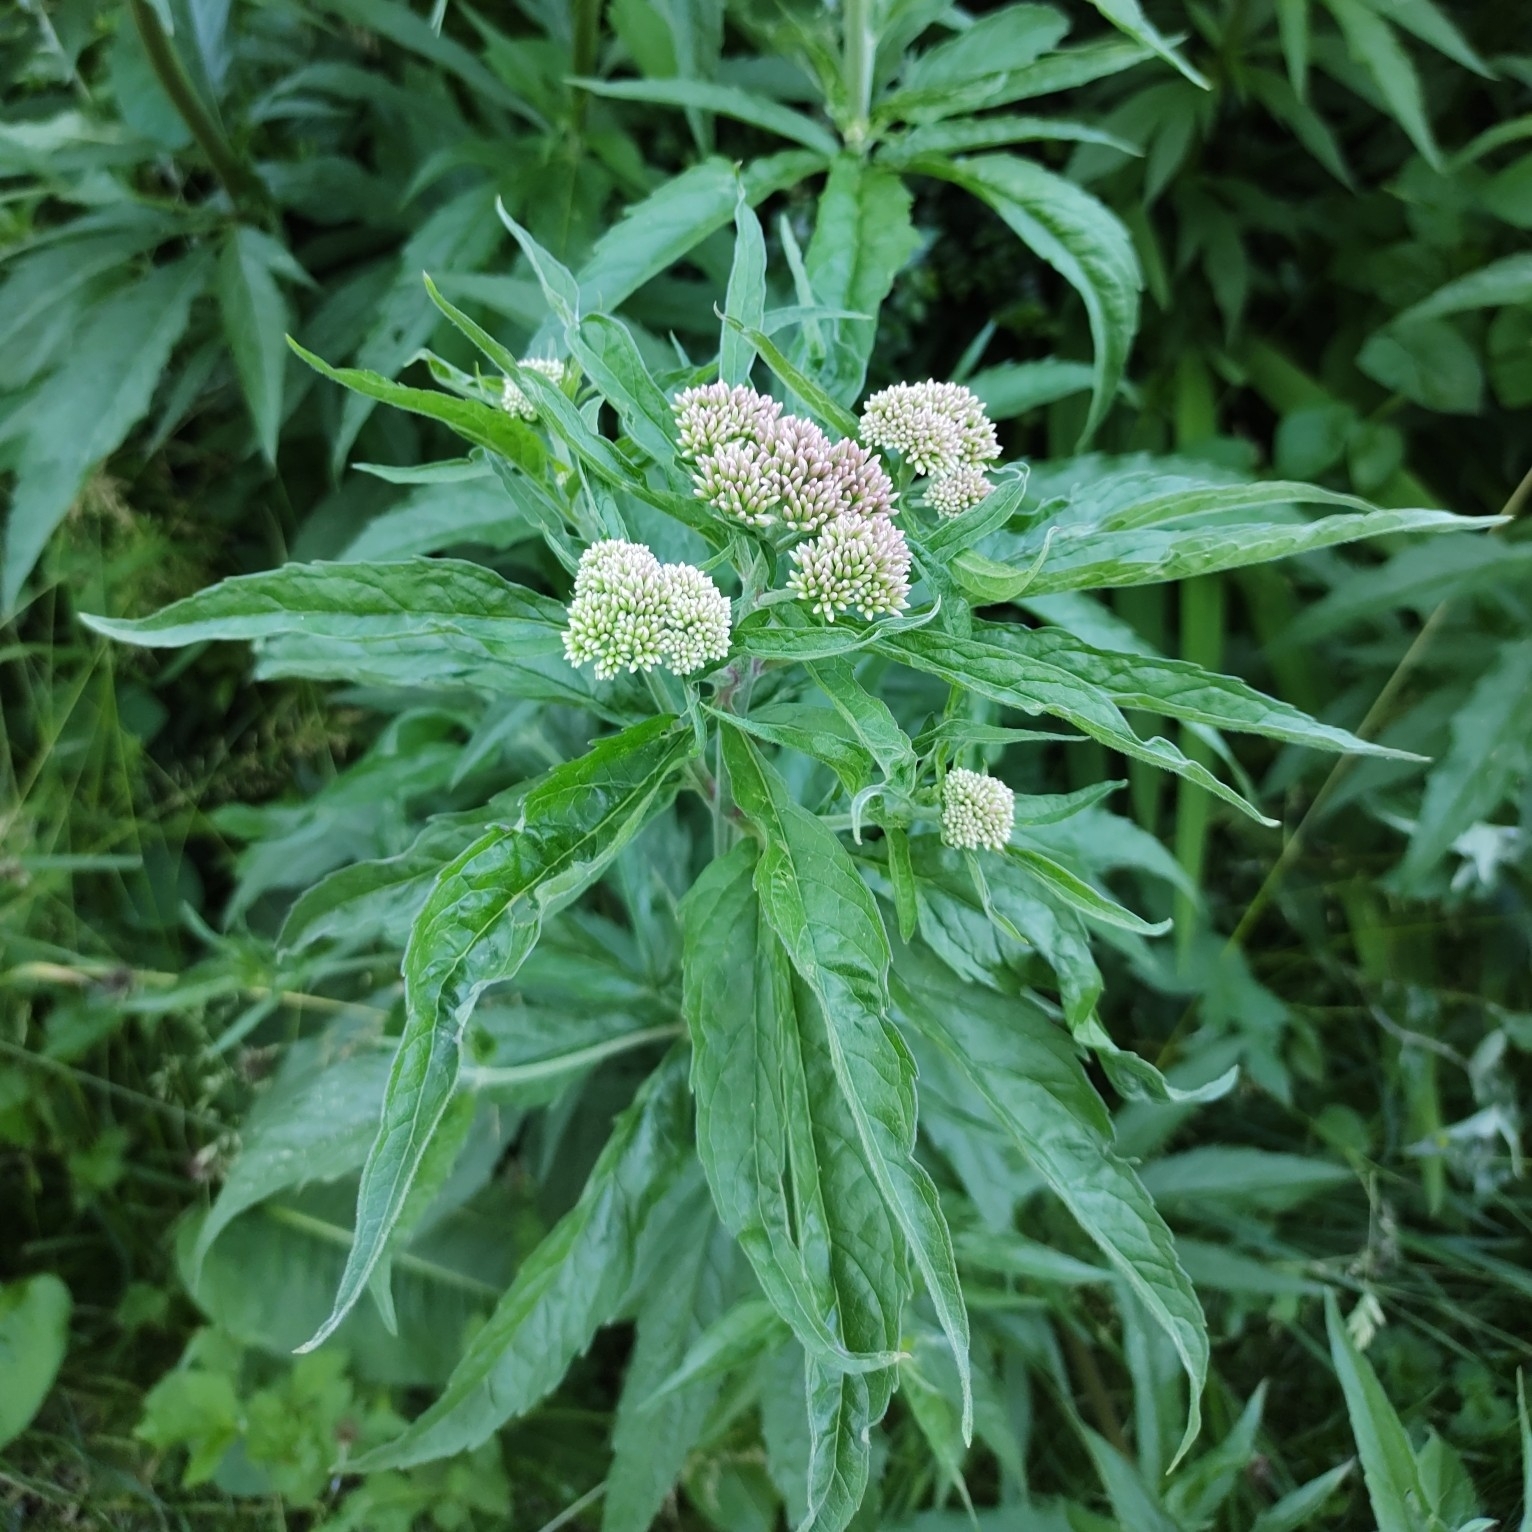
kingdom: Plantae
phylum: Tracheophyta
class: Magnoliopsida
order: Asterales
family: Asteraceae
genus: Eupatorium
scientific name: Eupatorium cannabinum
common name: Hemp-agrimony
